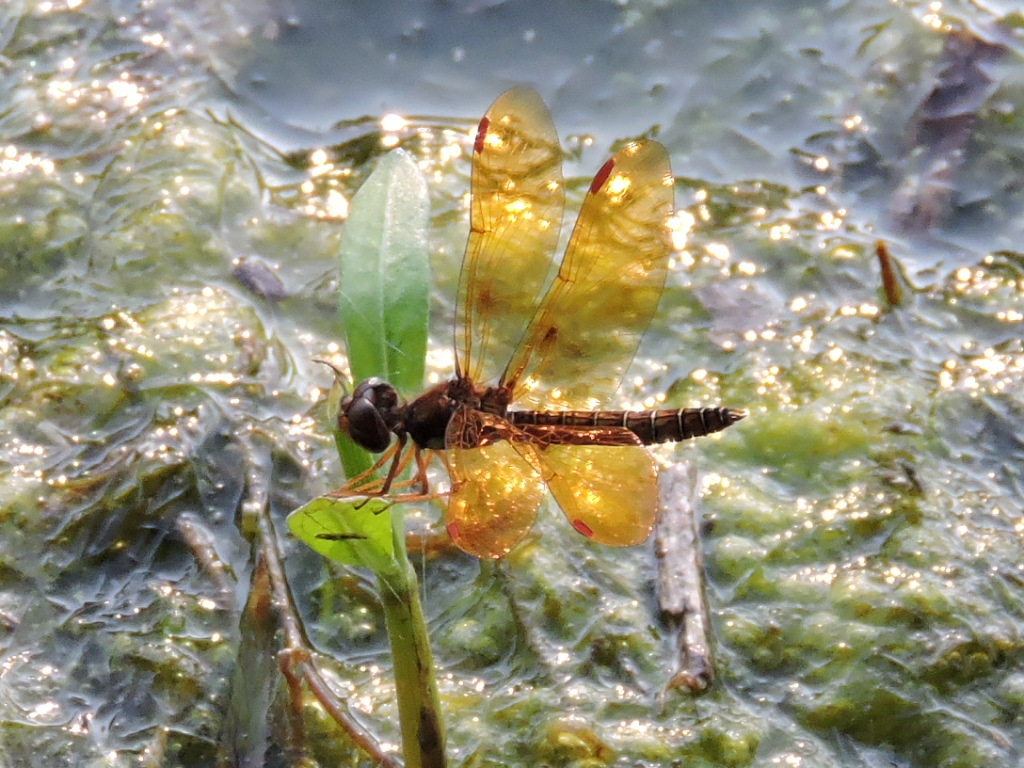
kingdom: Animalia
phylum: Arthropoda
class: Insecta
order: Odonata
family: Libellulidae
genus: Perithemis
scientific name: Perithemis tenera
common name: Eastern amberwing
